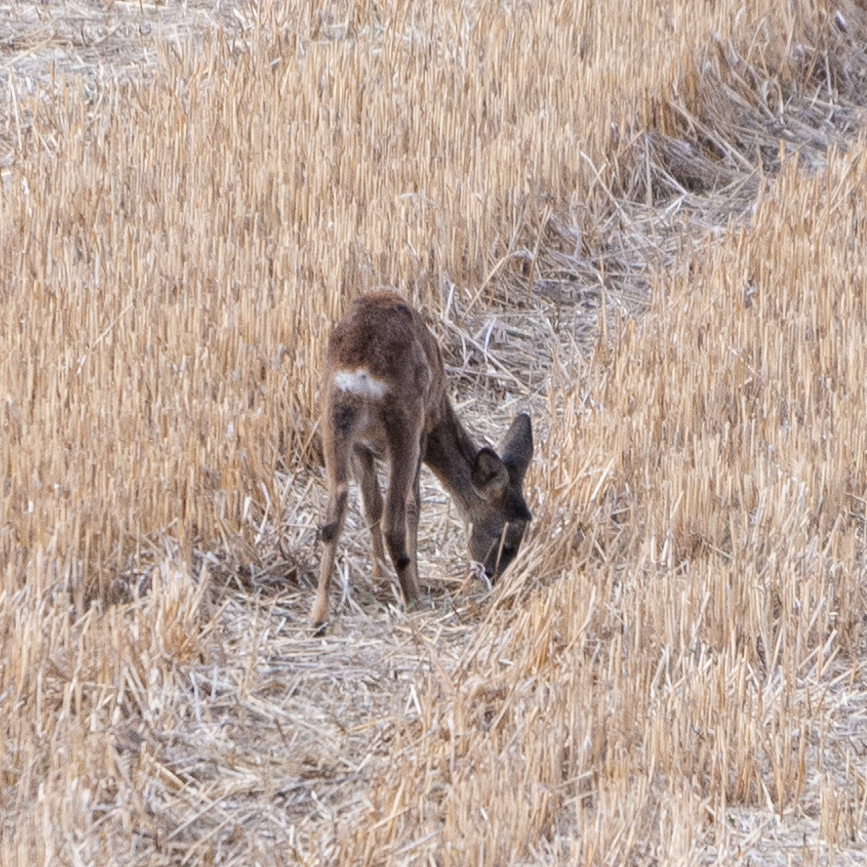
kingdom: Animalia
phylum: Chordata
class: Mammalia
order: Artiodactyla
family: Cervidae
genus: Capreolus
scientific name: Capreolus capreolus
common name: Western roe deer
